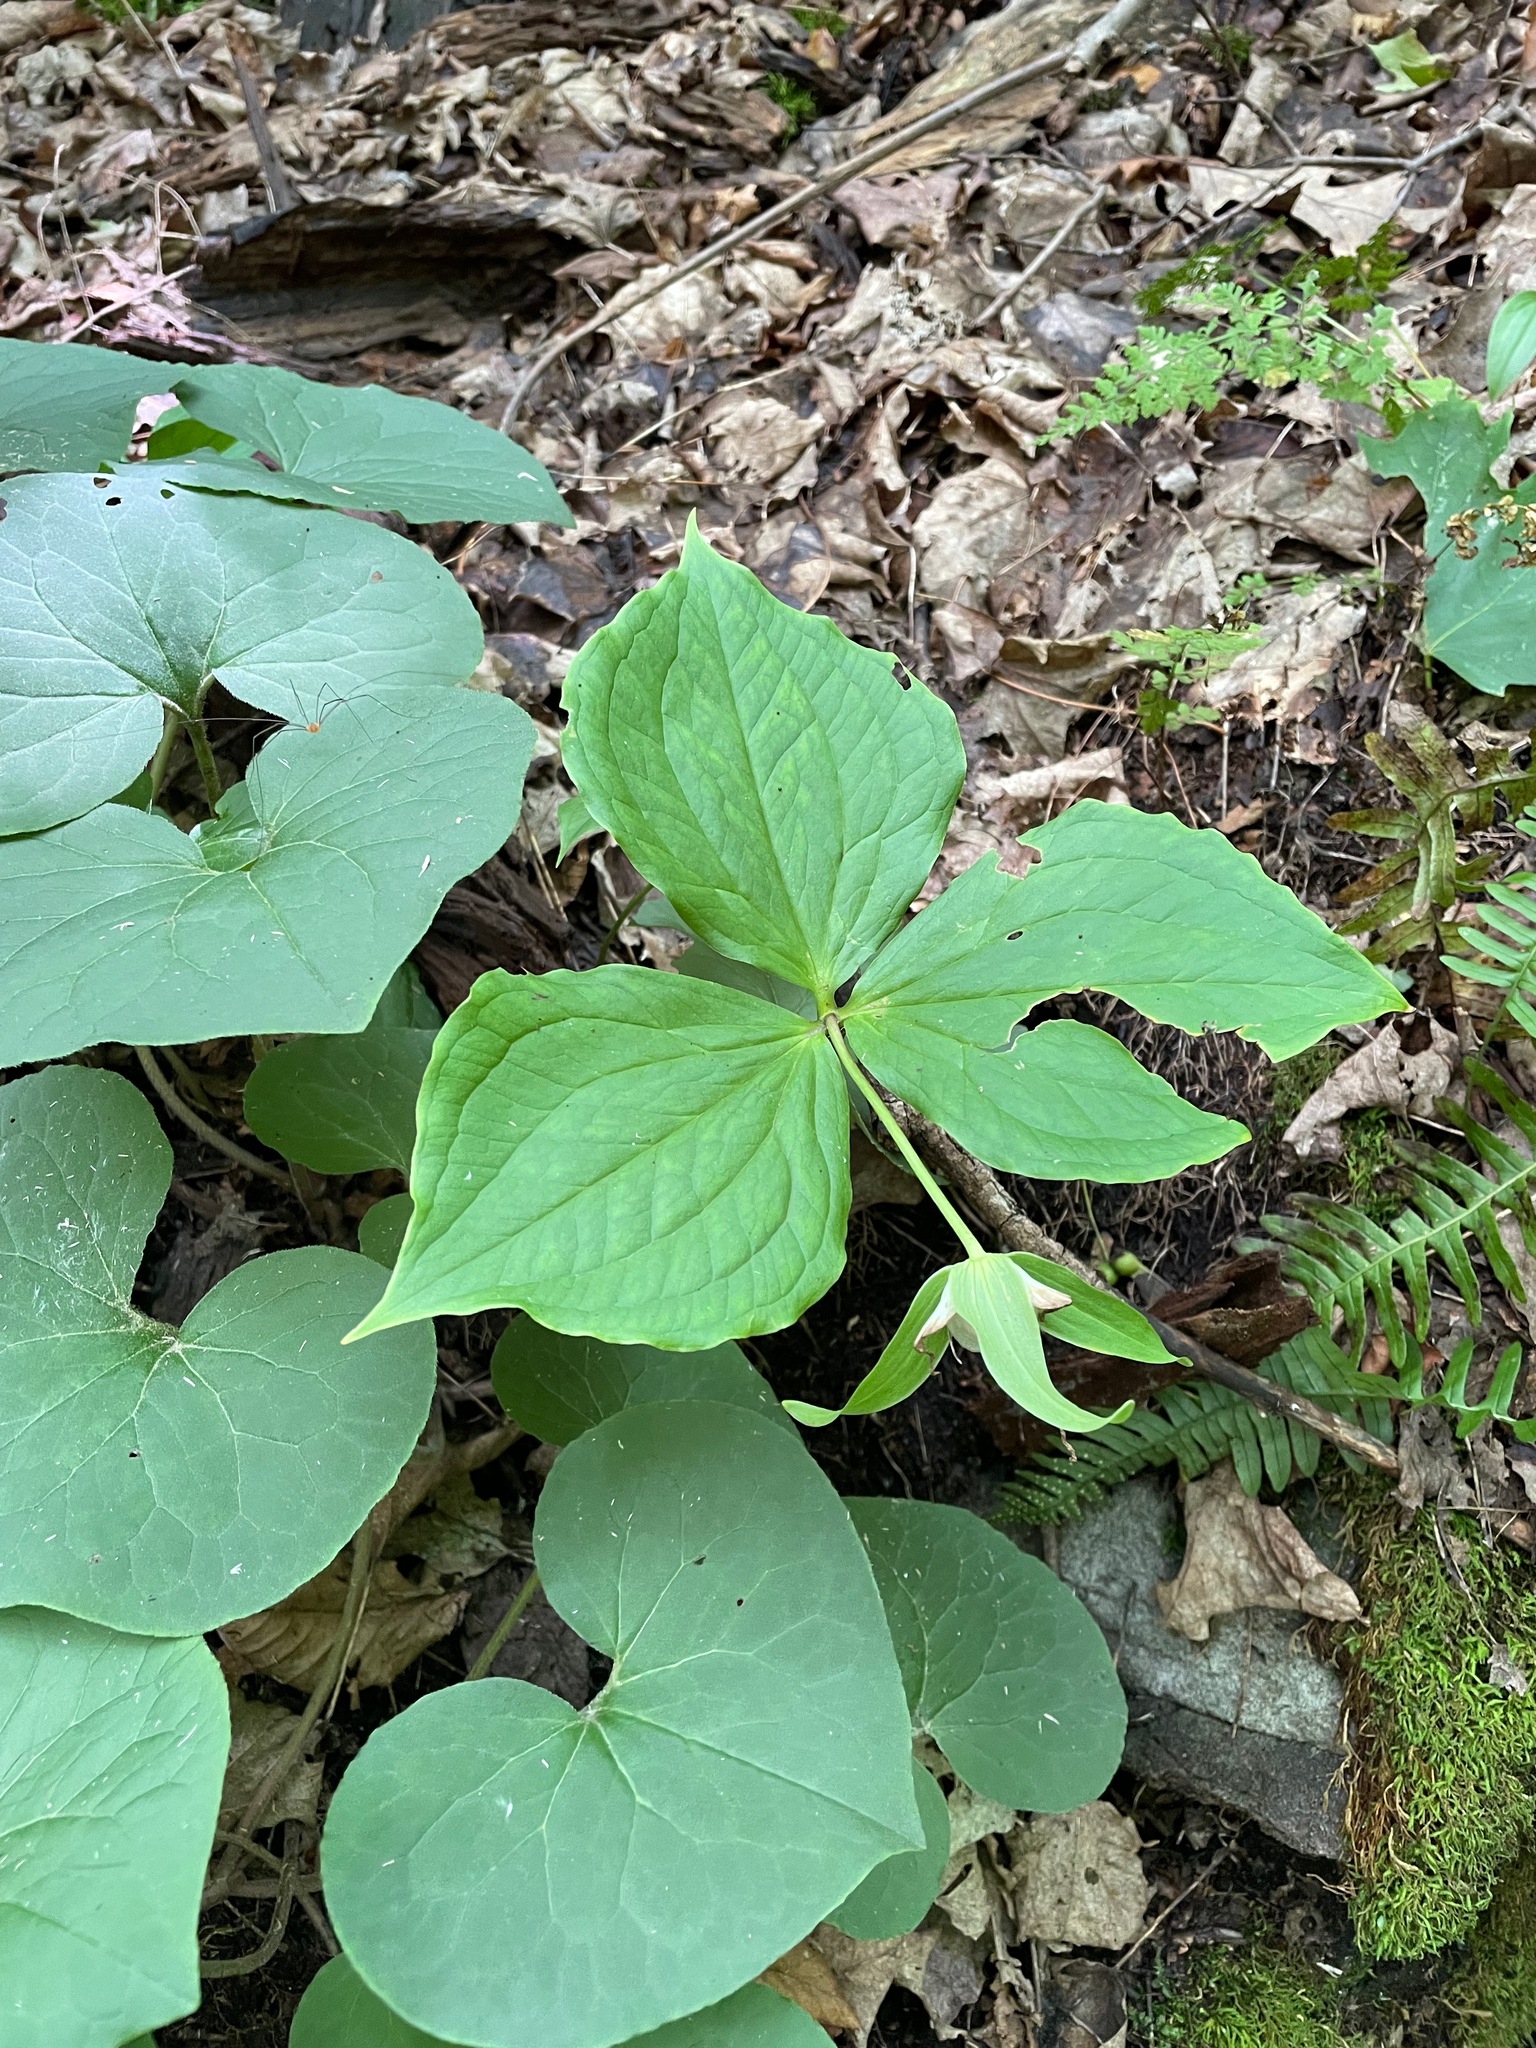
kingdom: Plantae
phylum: Tracheophyta
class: Liliopsida
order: Liliales
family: Melanthiaceae
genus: Trillium
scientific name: Trillium grandiflorum
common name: Great white trillium
